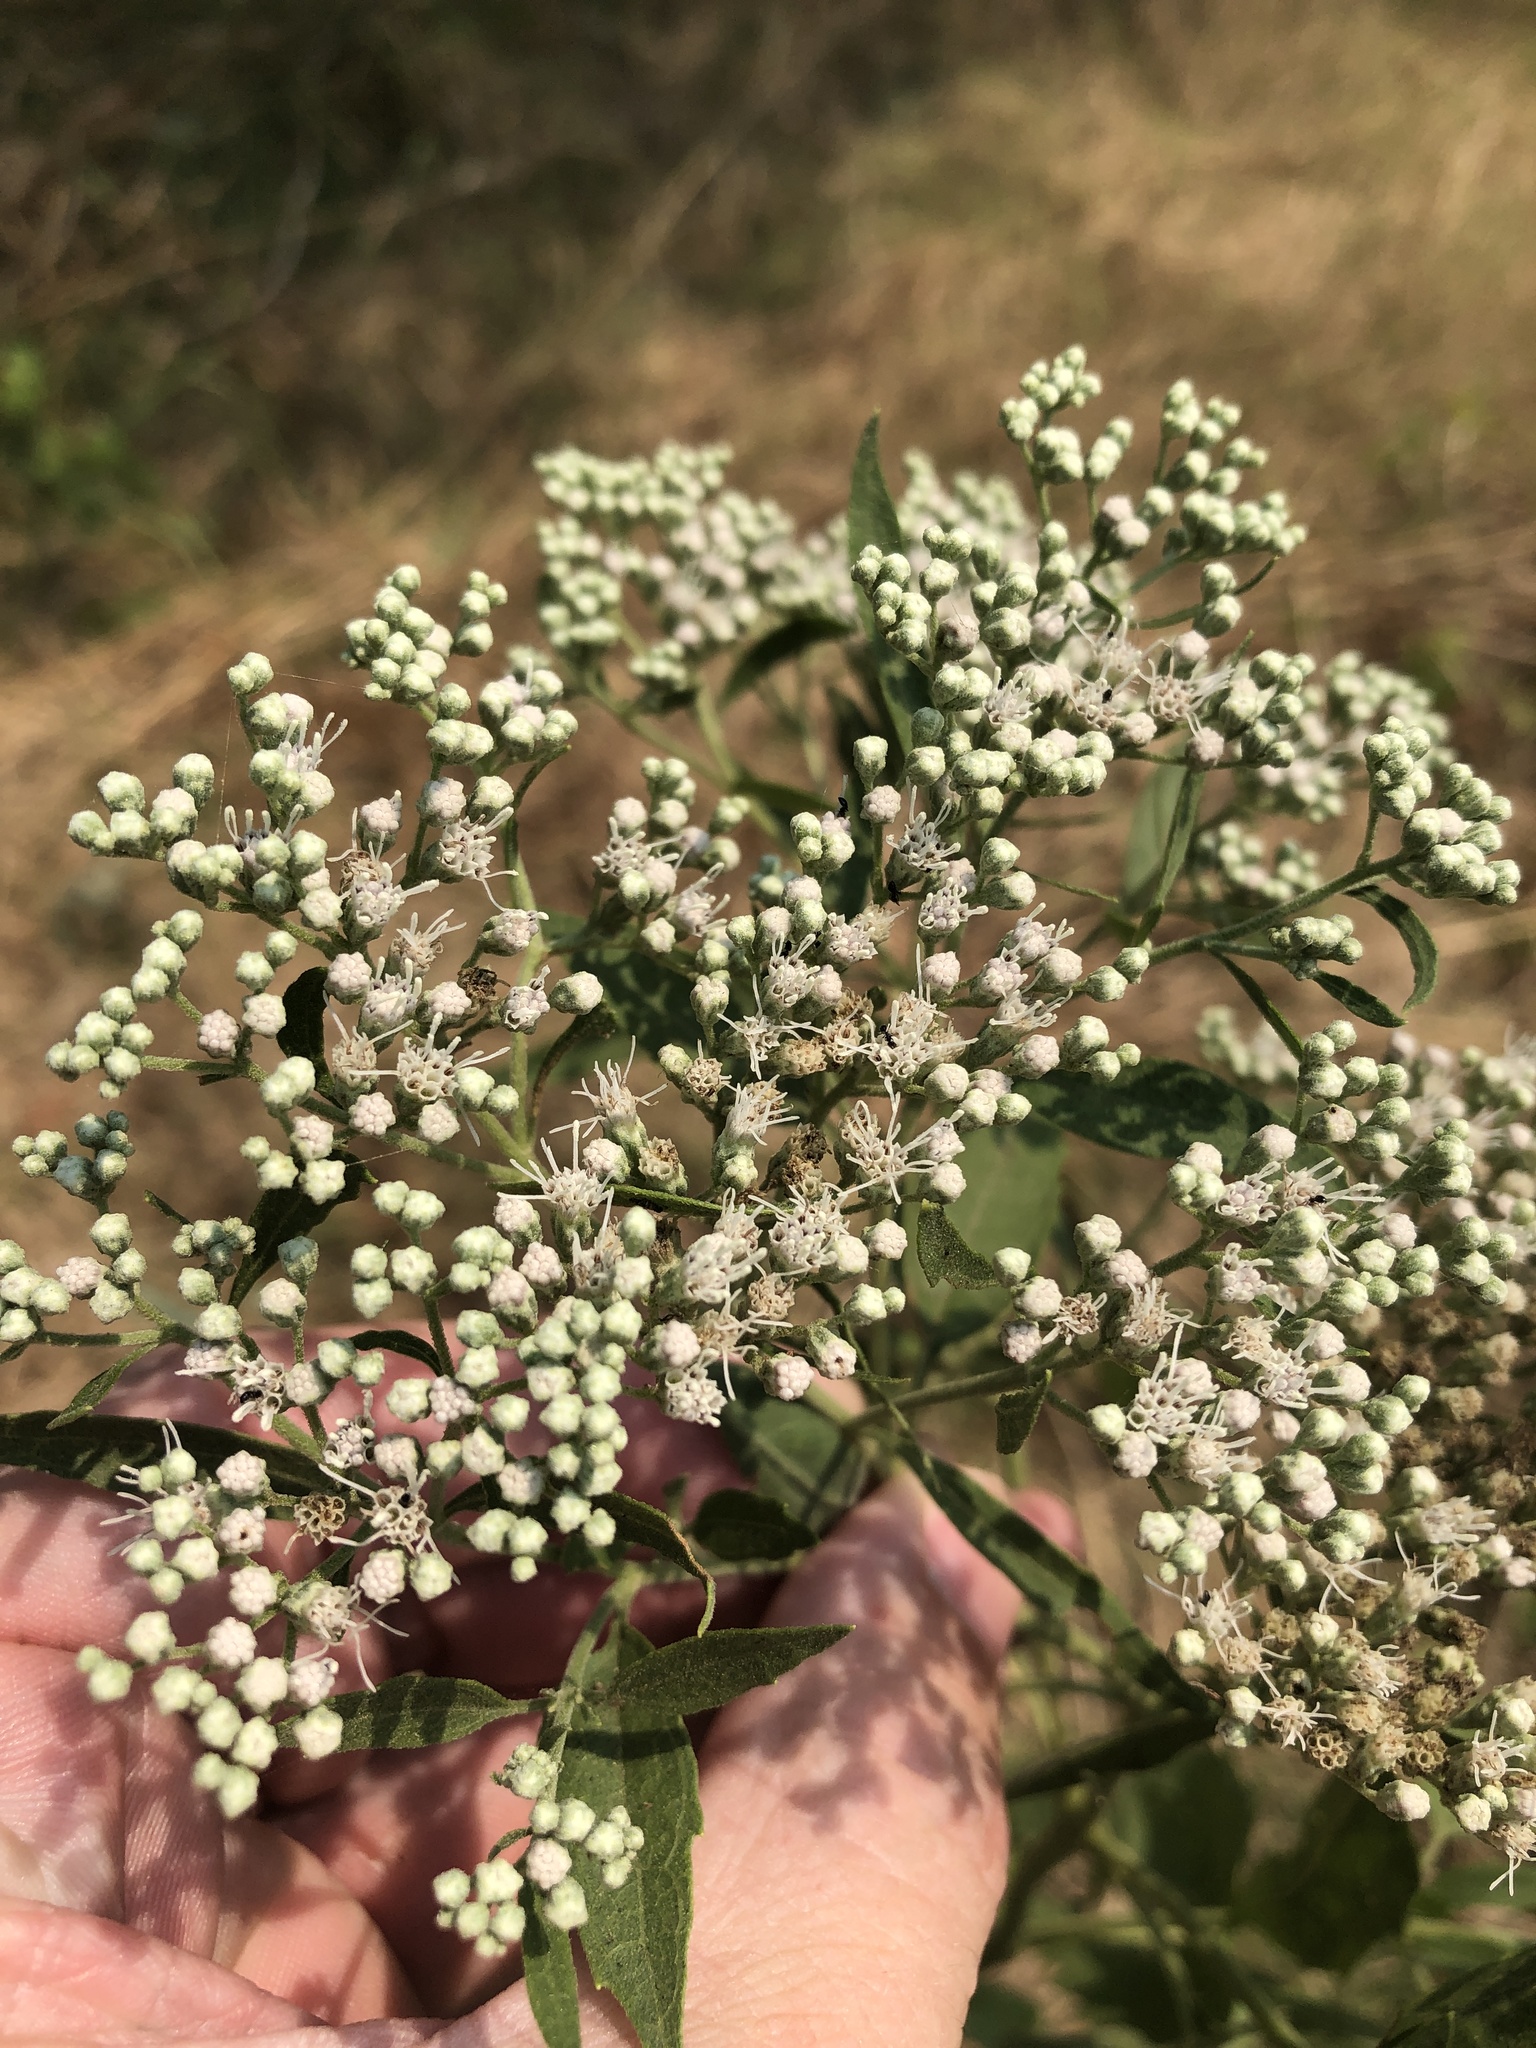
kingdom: Plantae
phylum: Tracheophyta
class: Magnoliopsida
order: Asterales
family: Asteraceae
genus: Eupatorium
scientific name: Eupatorium serotinum
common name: Late boneset
